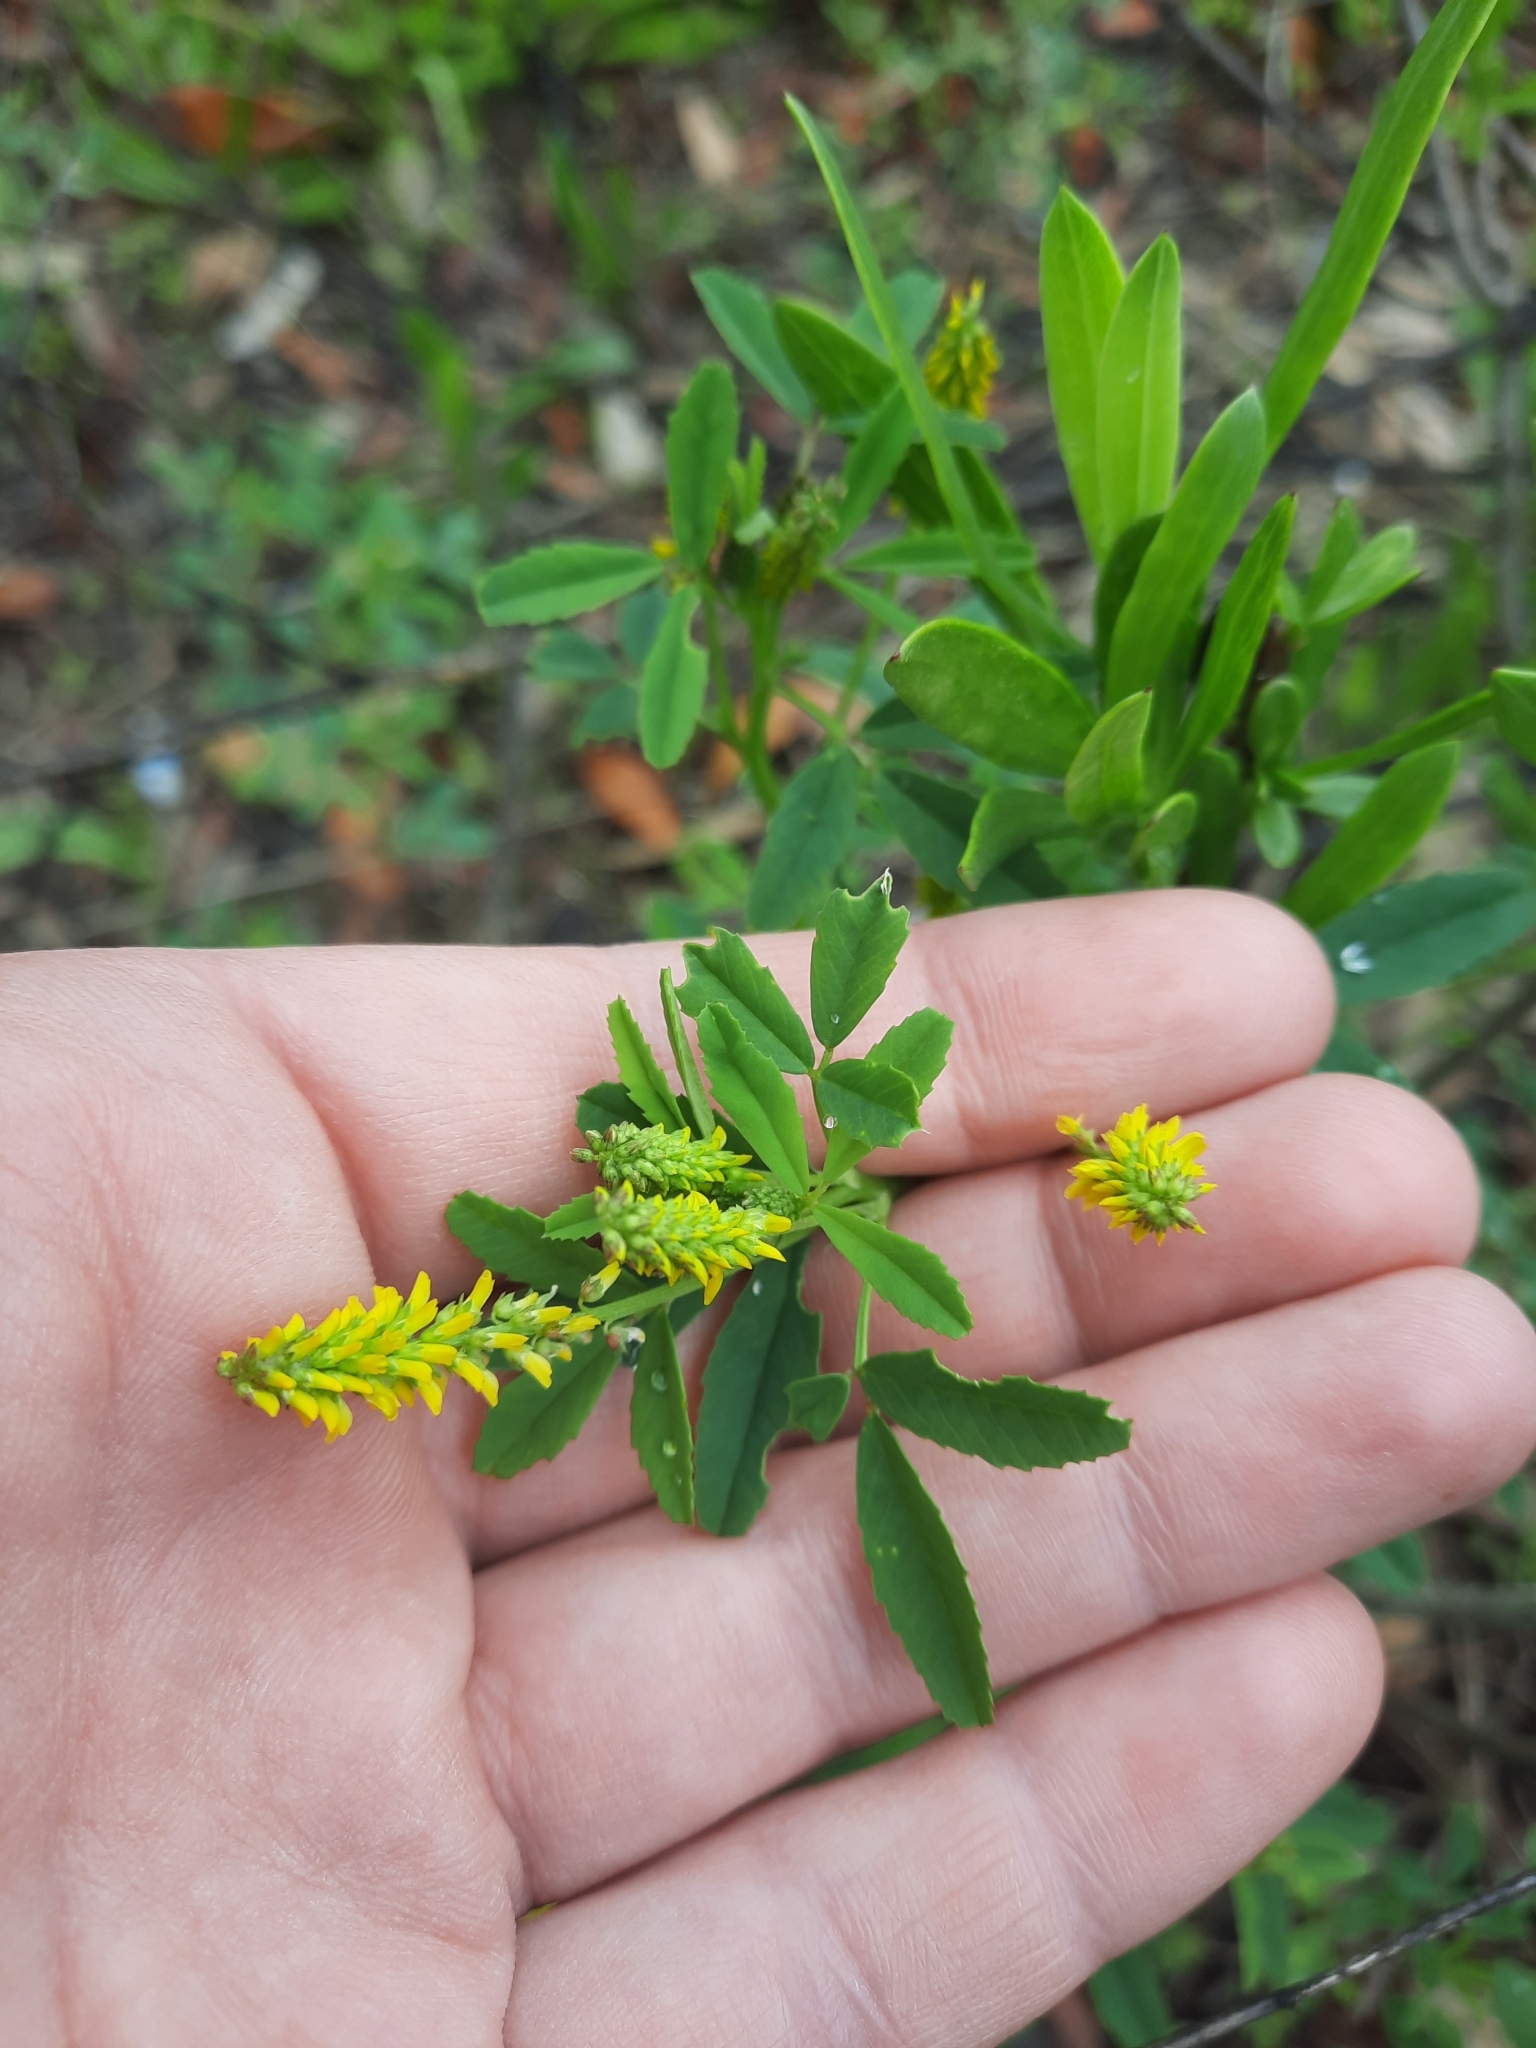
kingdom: Plantae
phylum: Tracheophyta
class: Magnoliopsida
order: Fabales
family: Fabaceae
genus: Melilotus
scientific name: Melilotus indicus
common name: Small melilot
